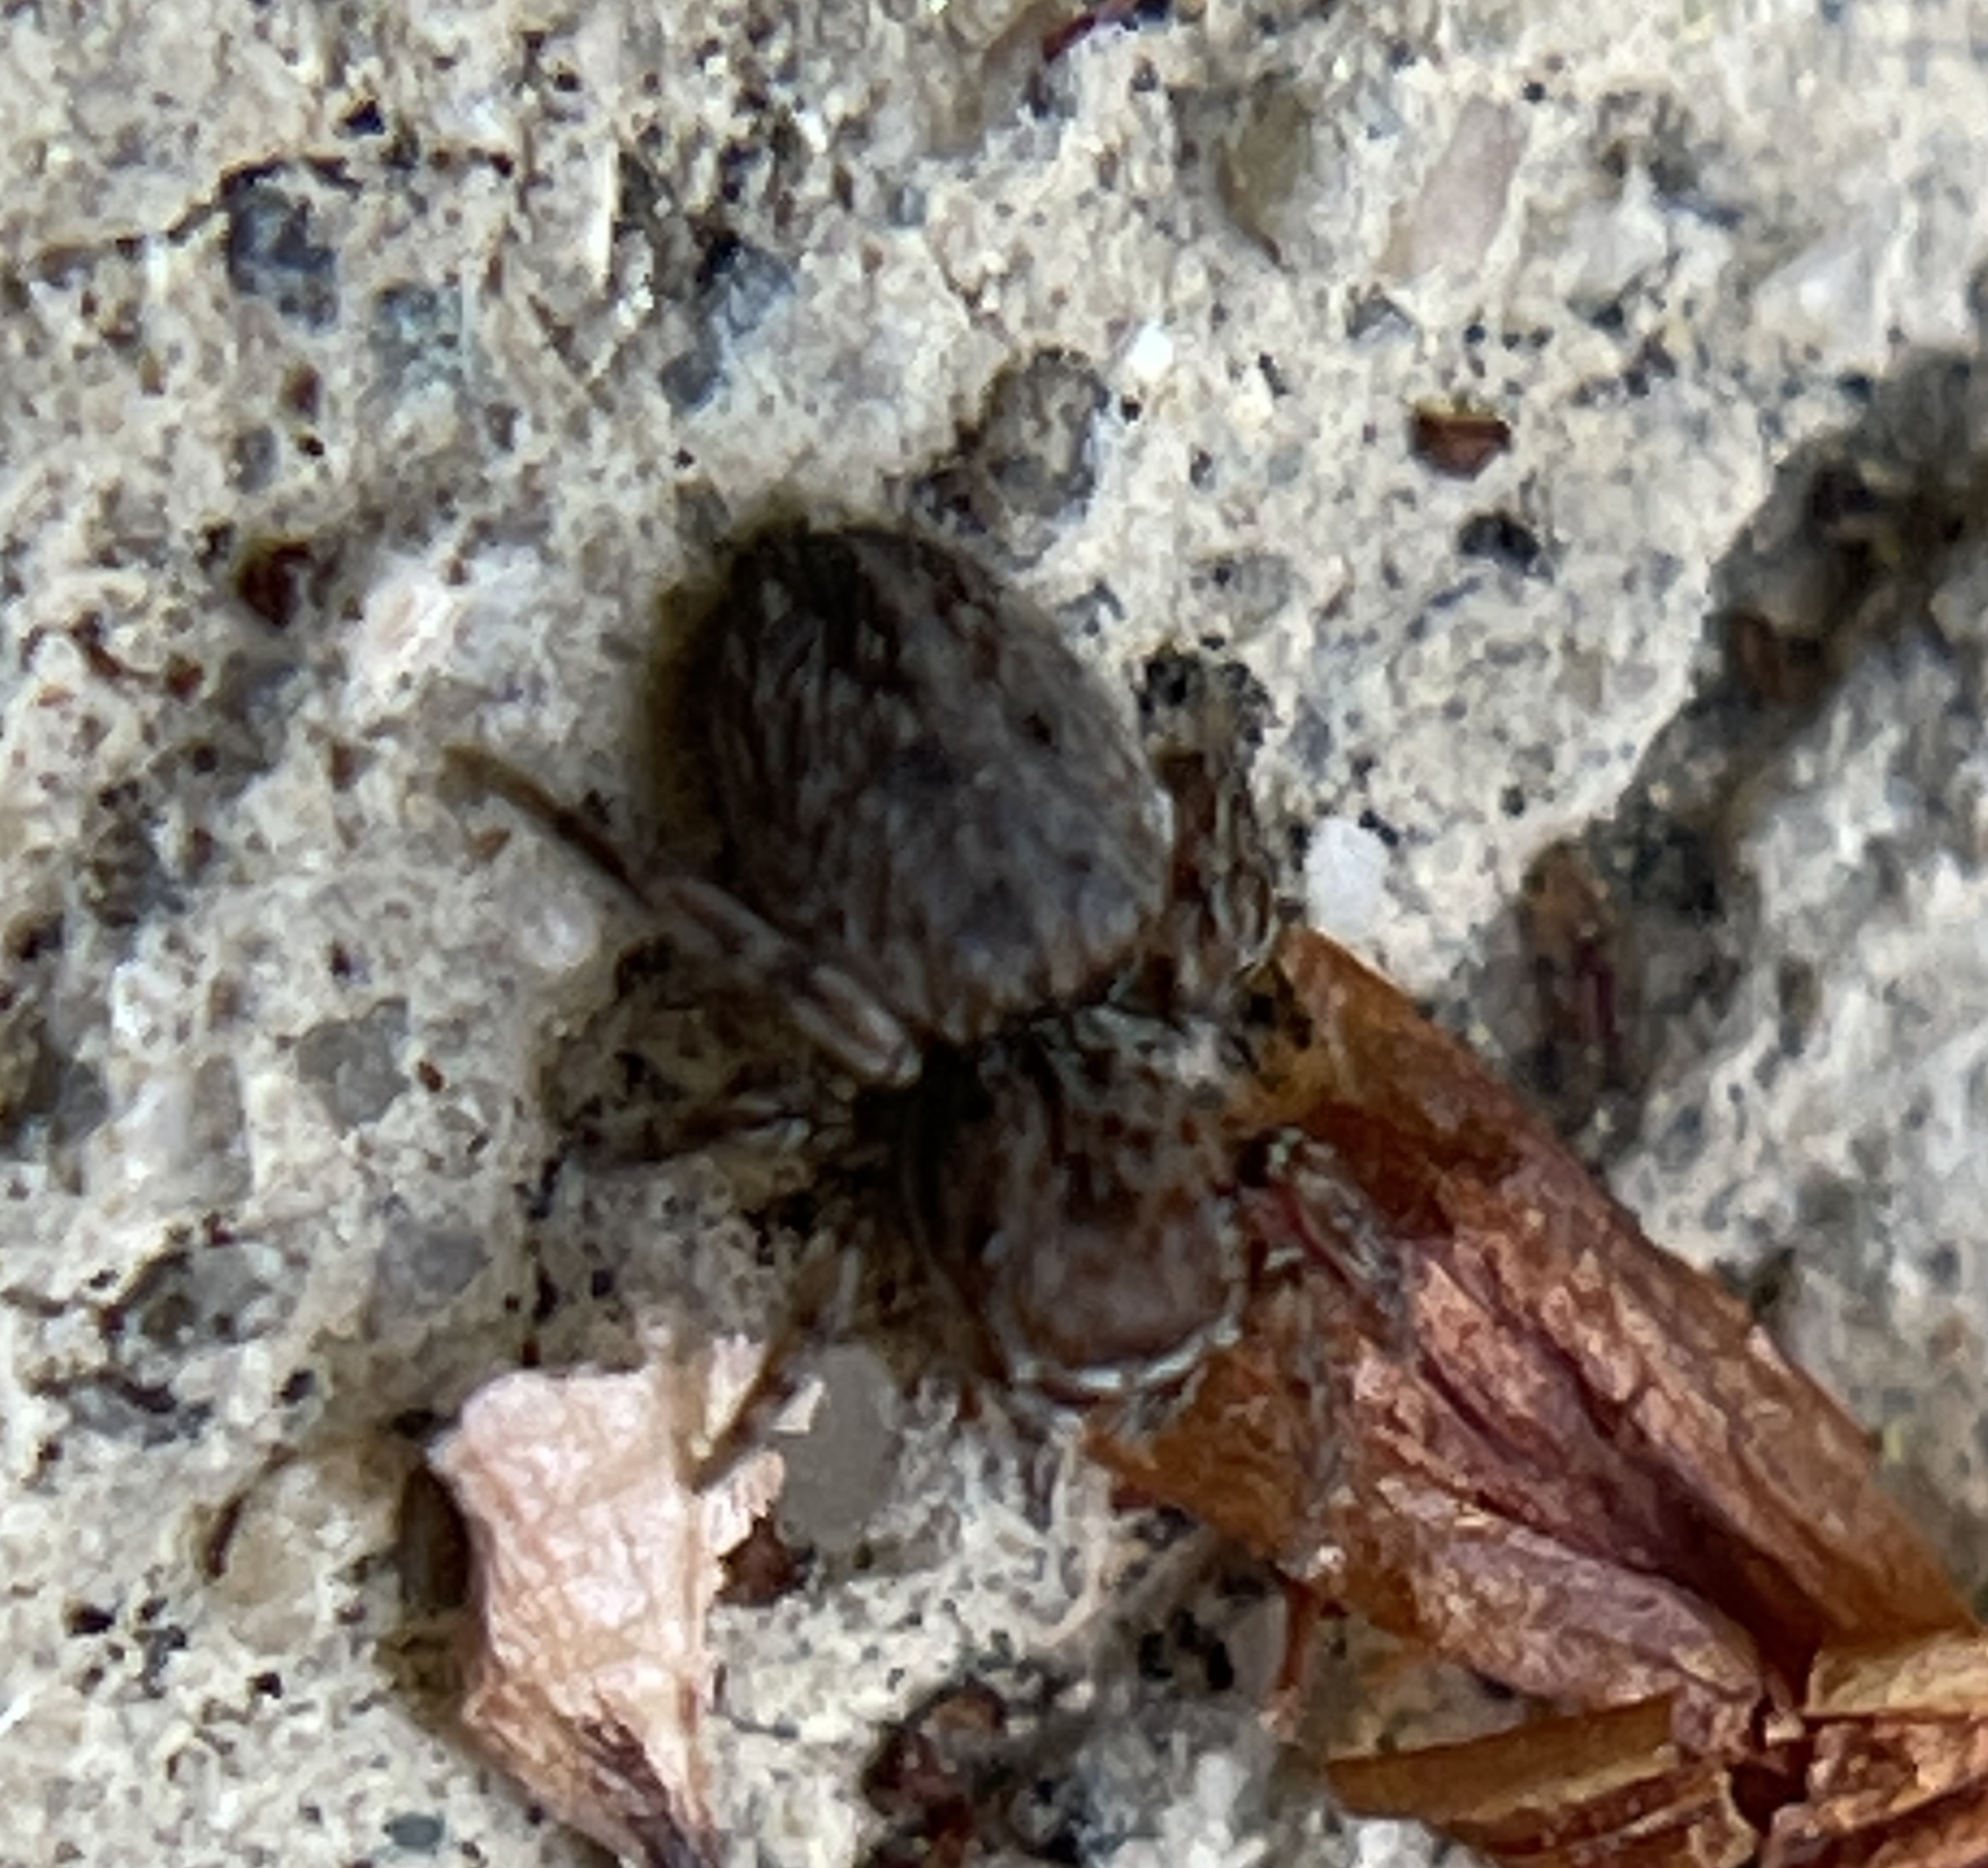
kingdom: Animalia
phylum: Arthropoda
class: Arachnida
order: Araneae
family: Salticidae
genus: Attinella
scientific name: Attinella dorsata
